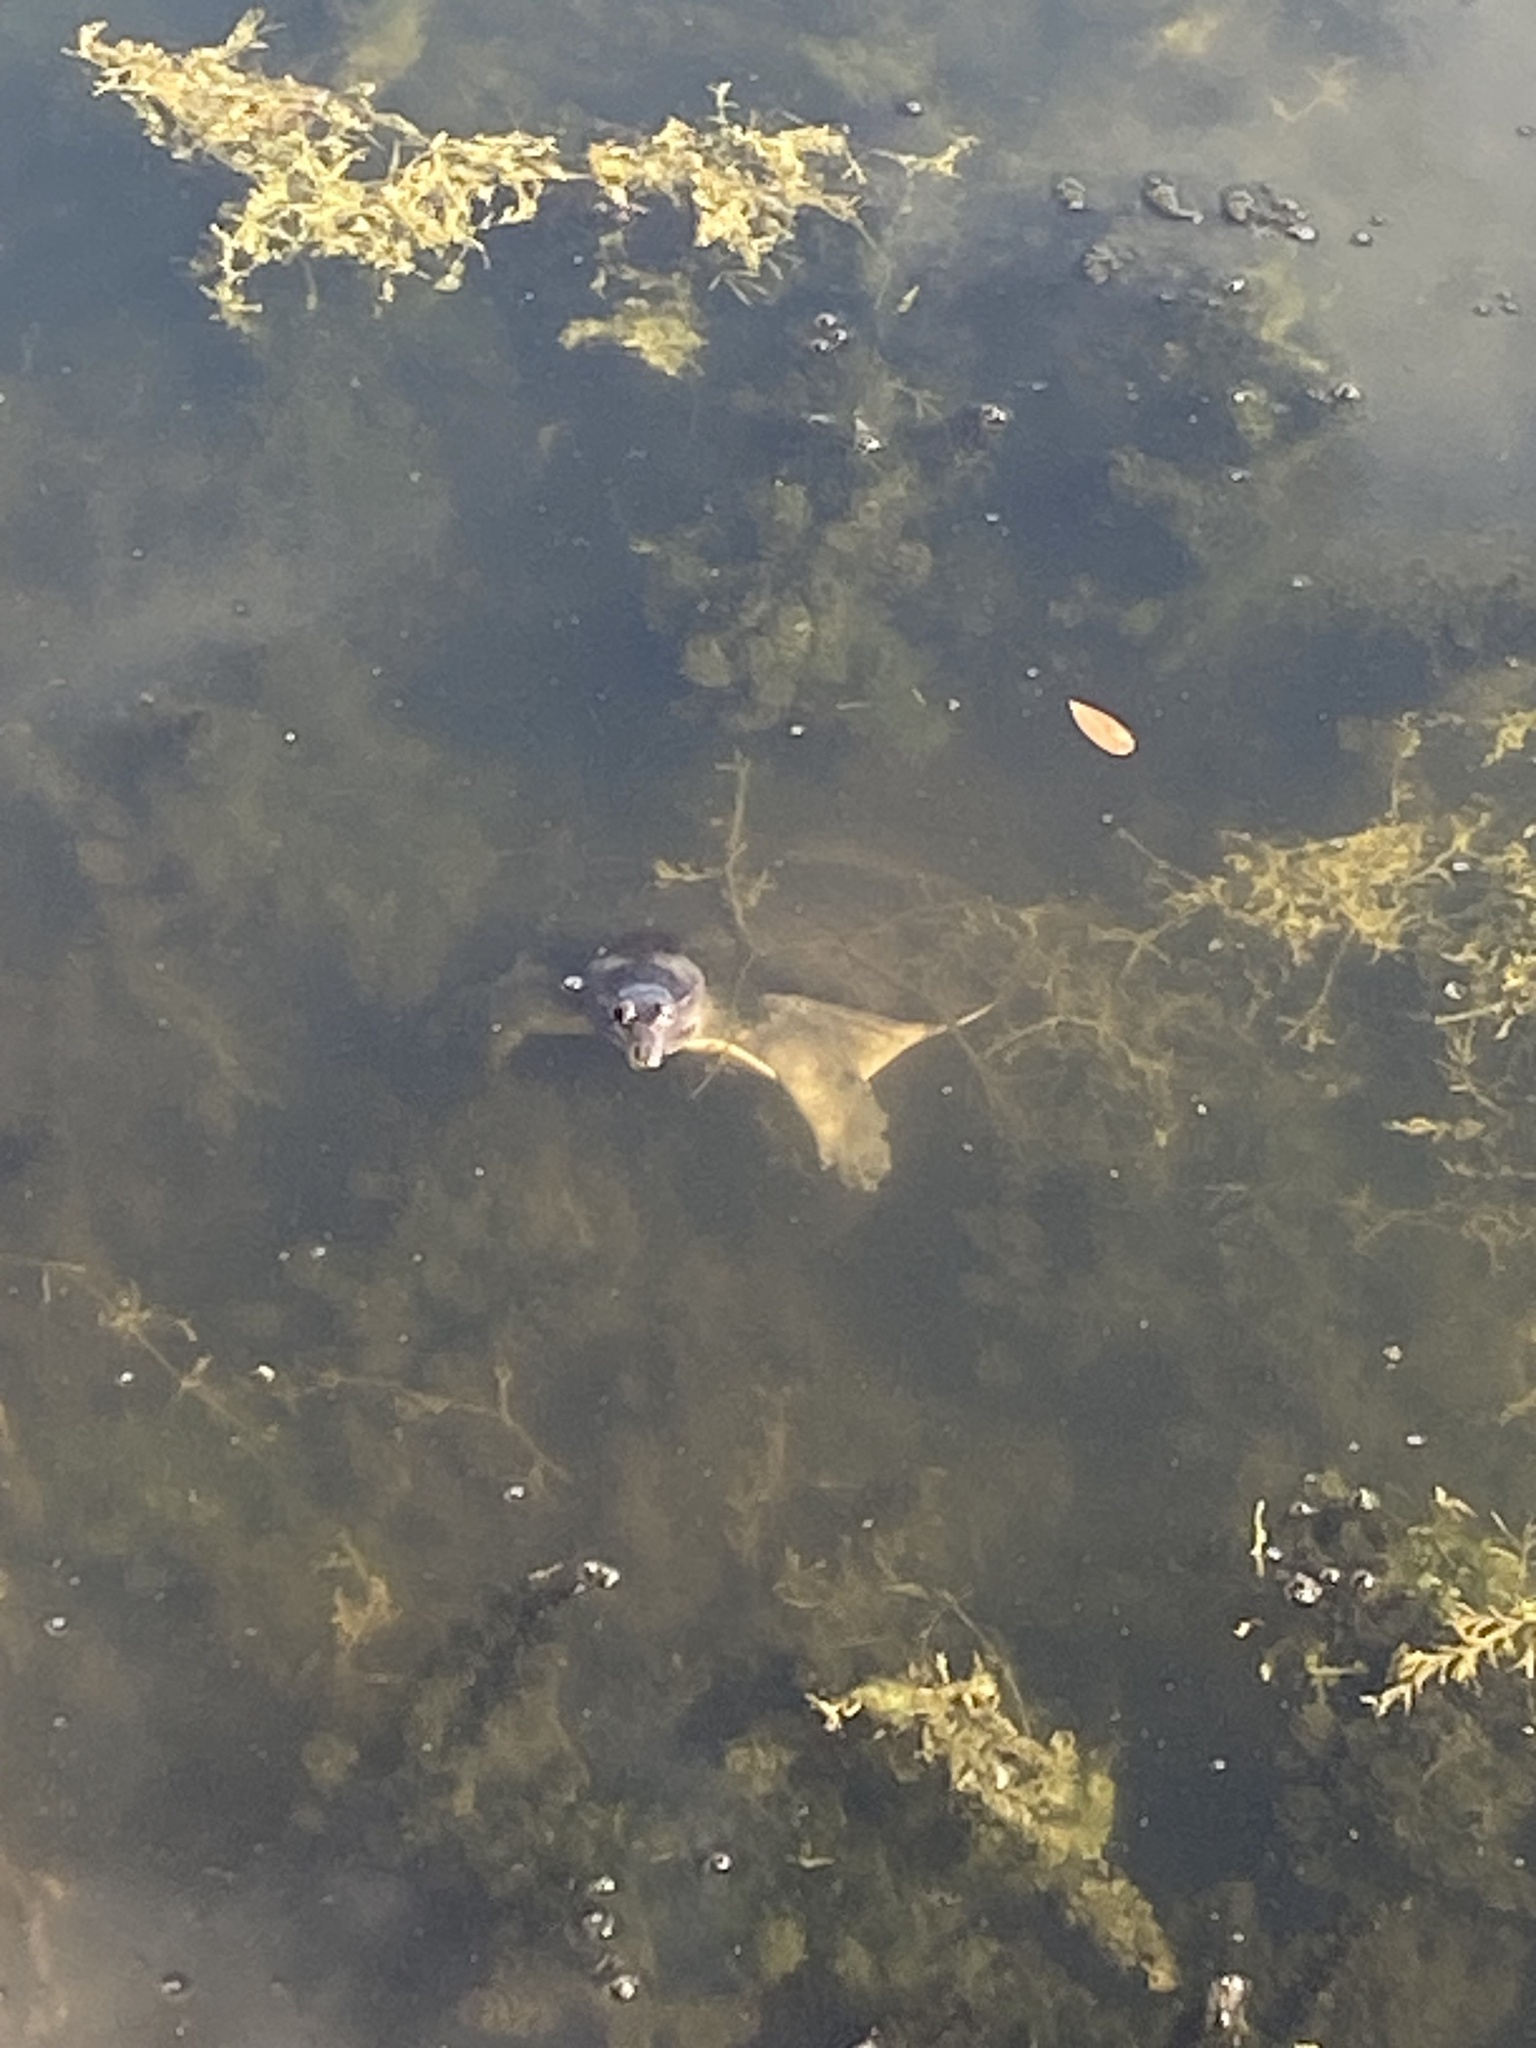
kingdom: Animalia
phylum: Chordata
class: Testudines
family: Trionychidae
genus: Apalone
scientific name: Apalone ferox
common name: Florida softshell turtle
